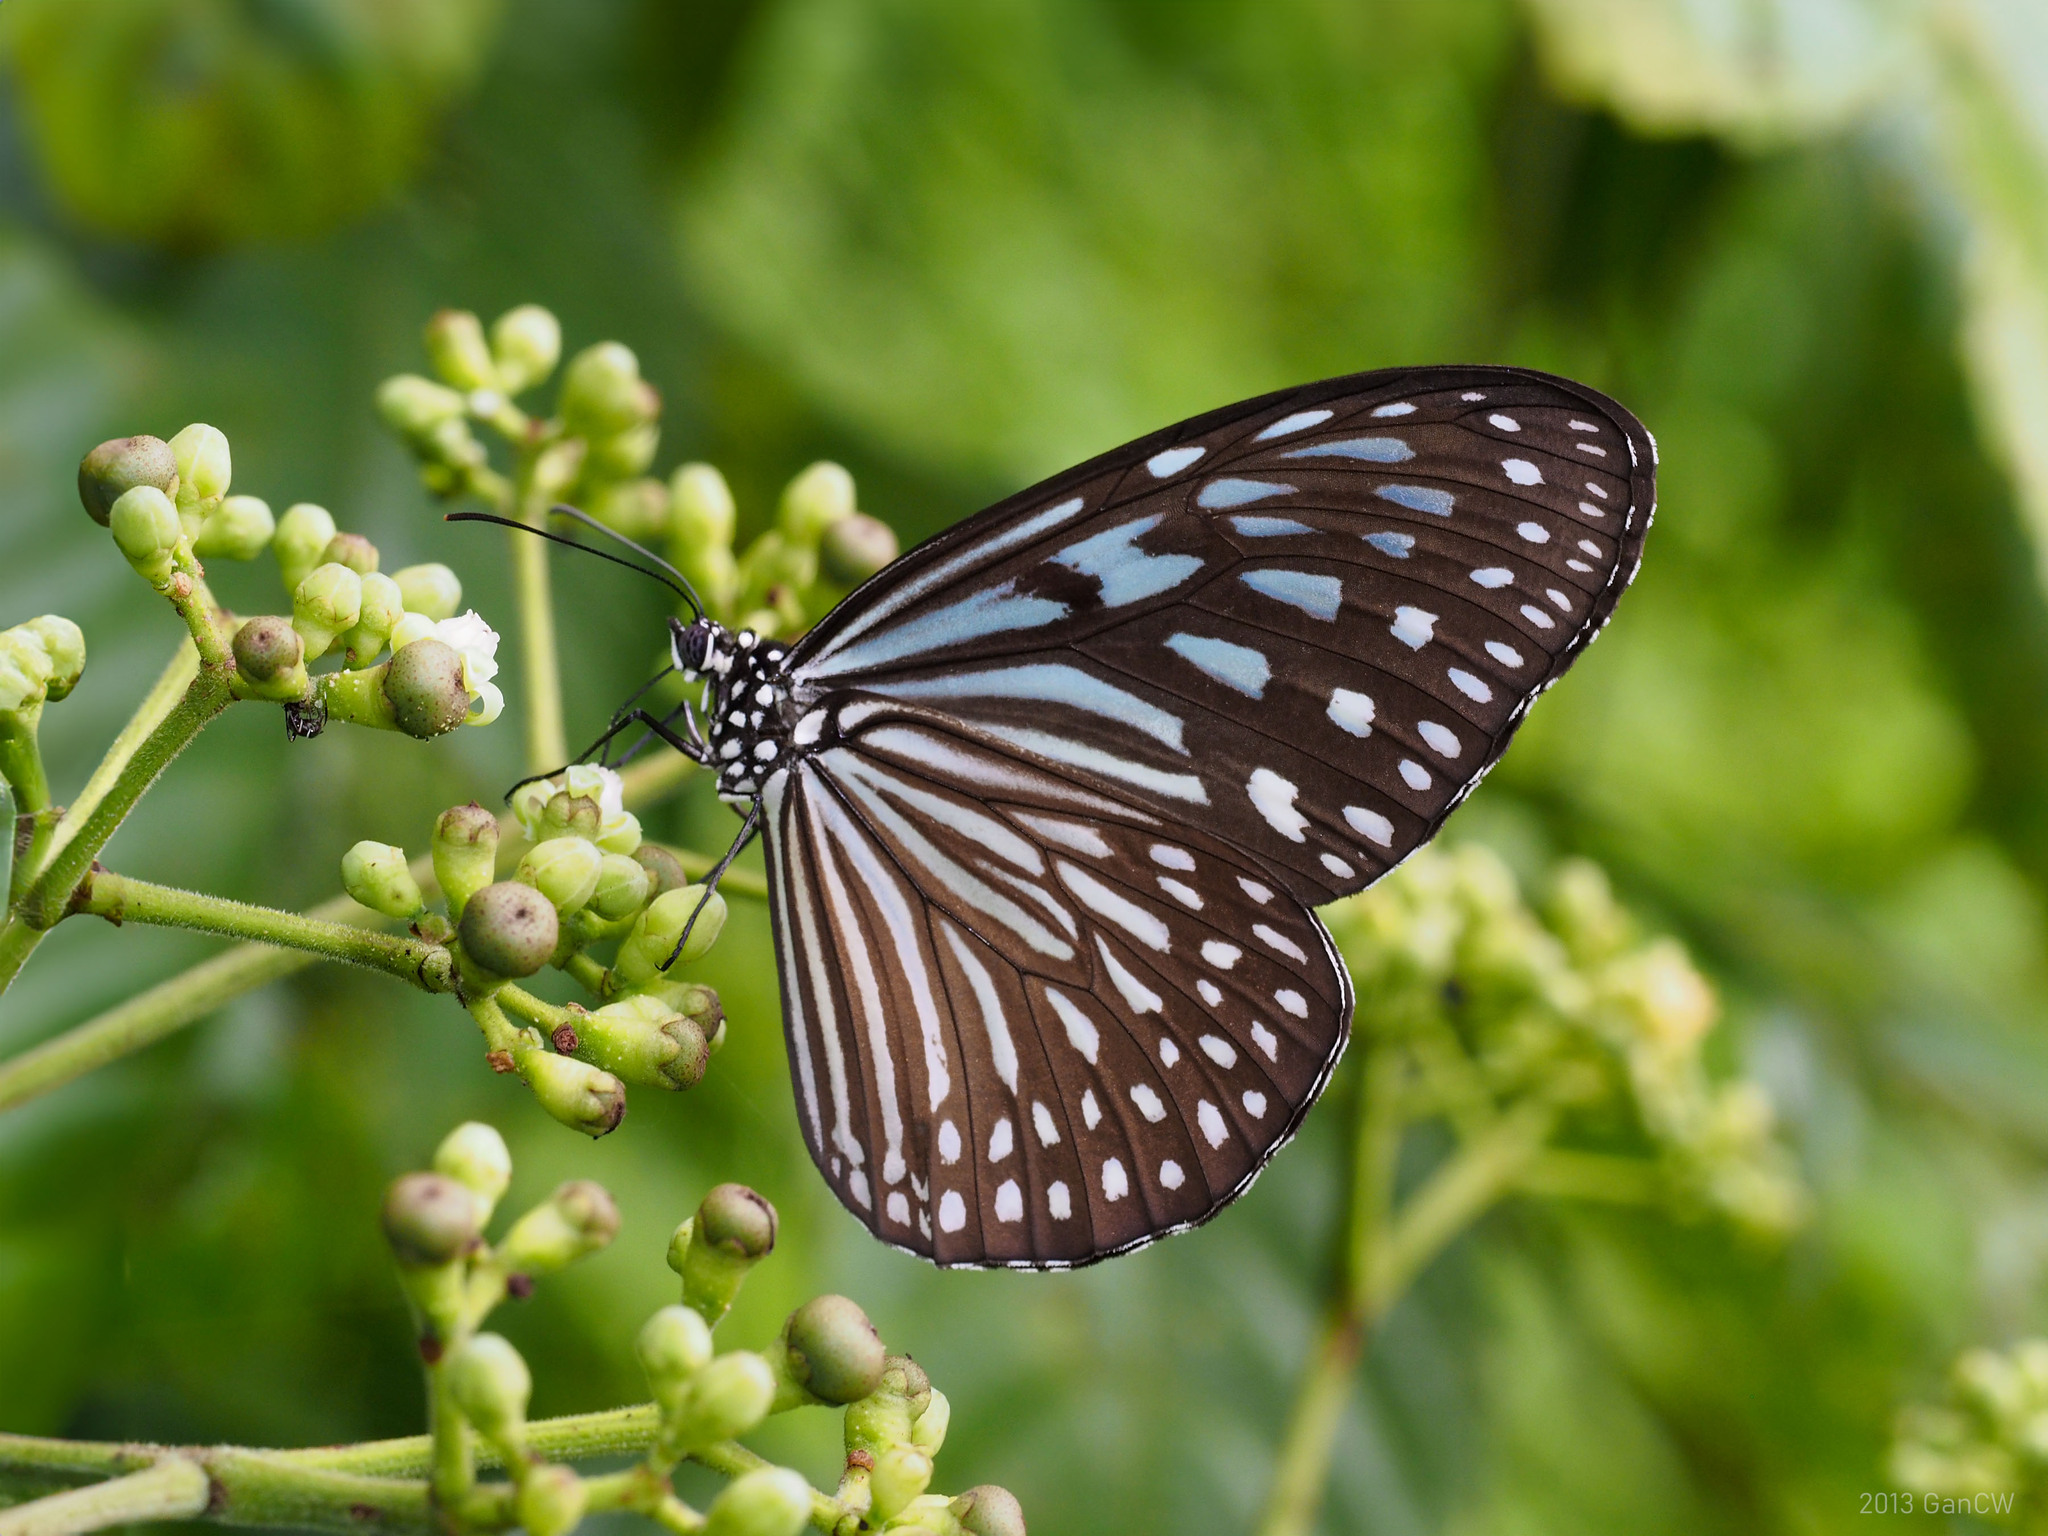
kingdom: Animalia
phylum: Arthropoda
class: Insecta
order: Lepidoptera
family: Nymphalidae
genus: Ideopsis
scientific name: Ideopsis vulgaris
